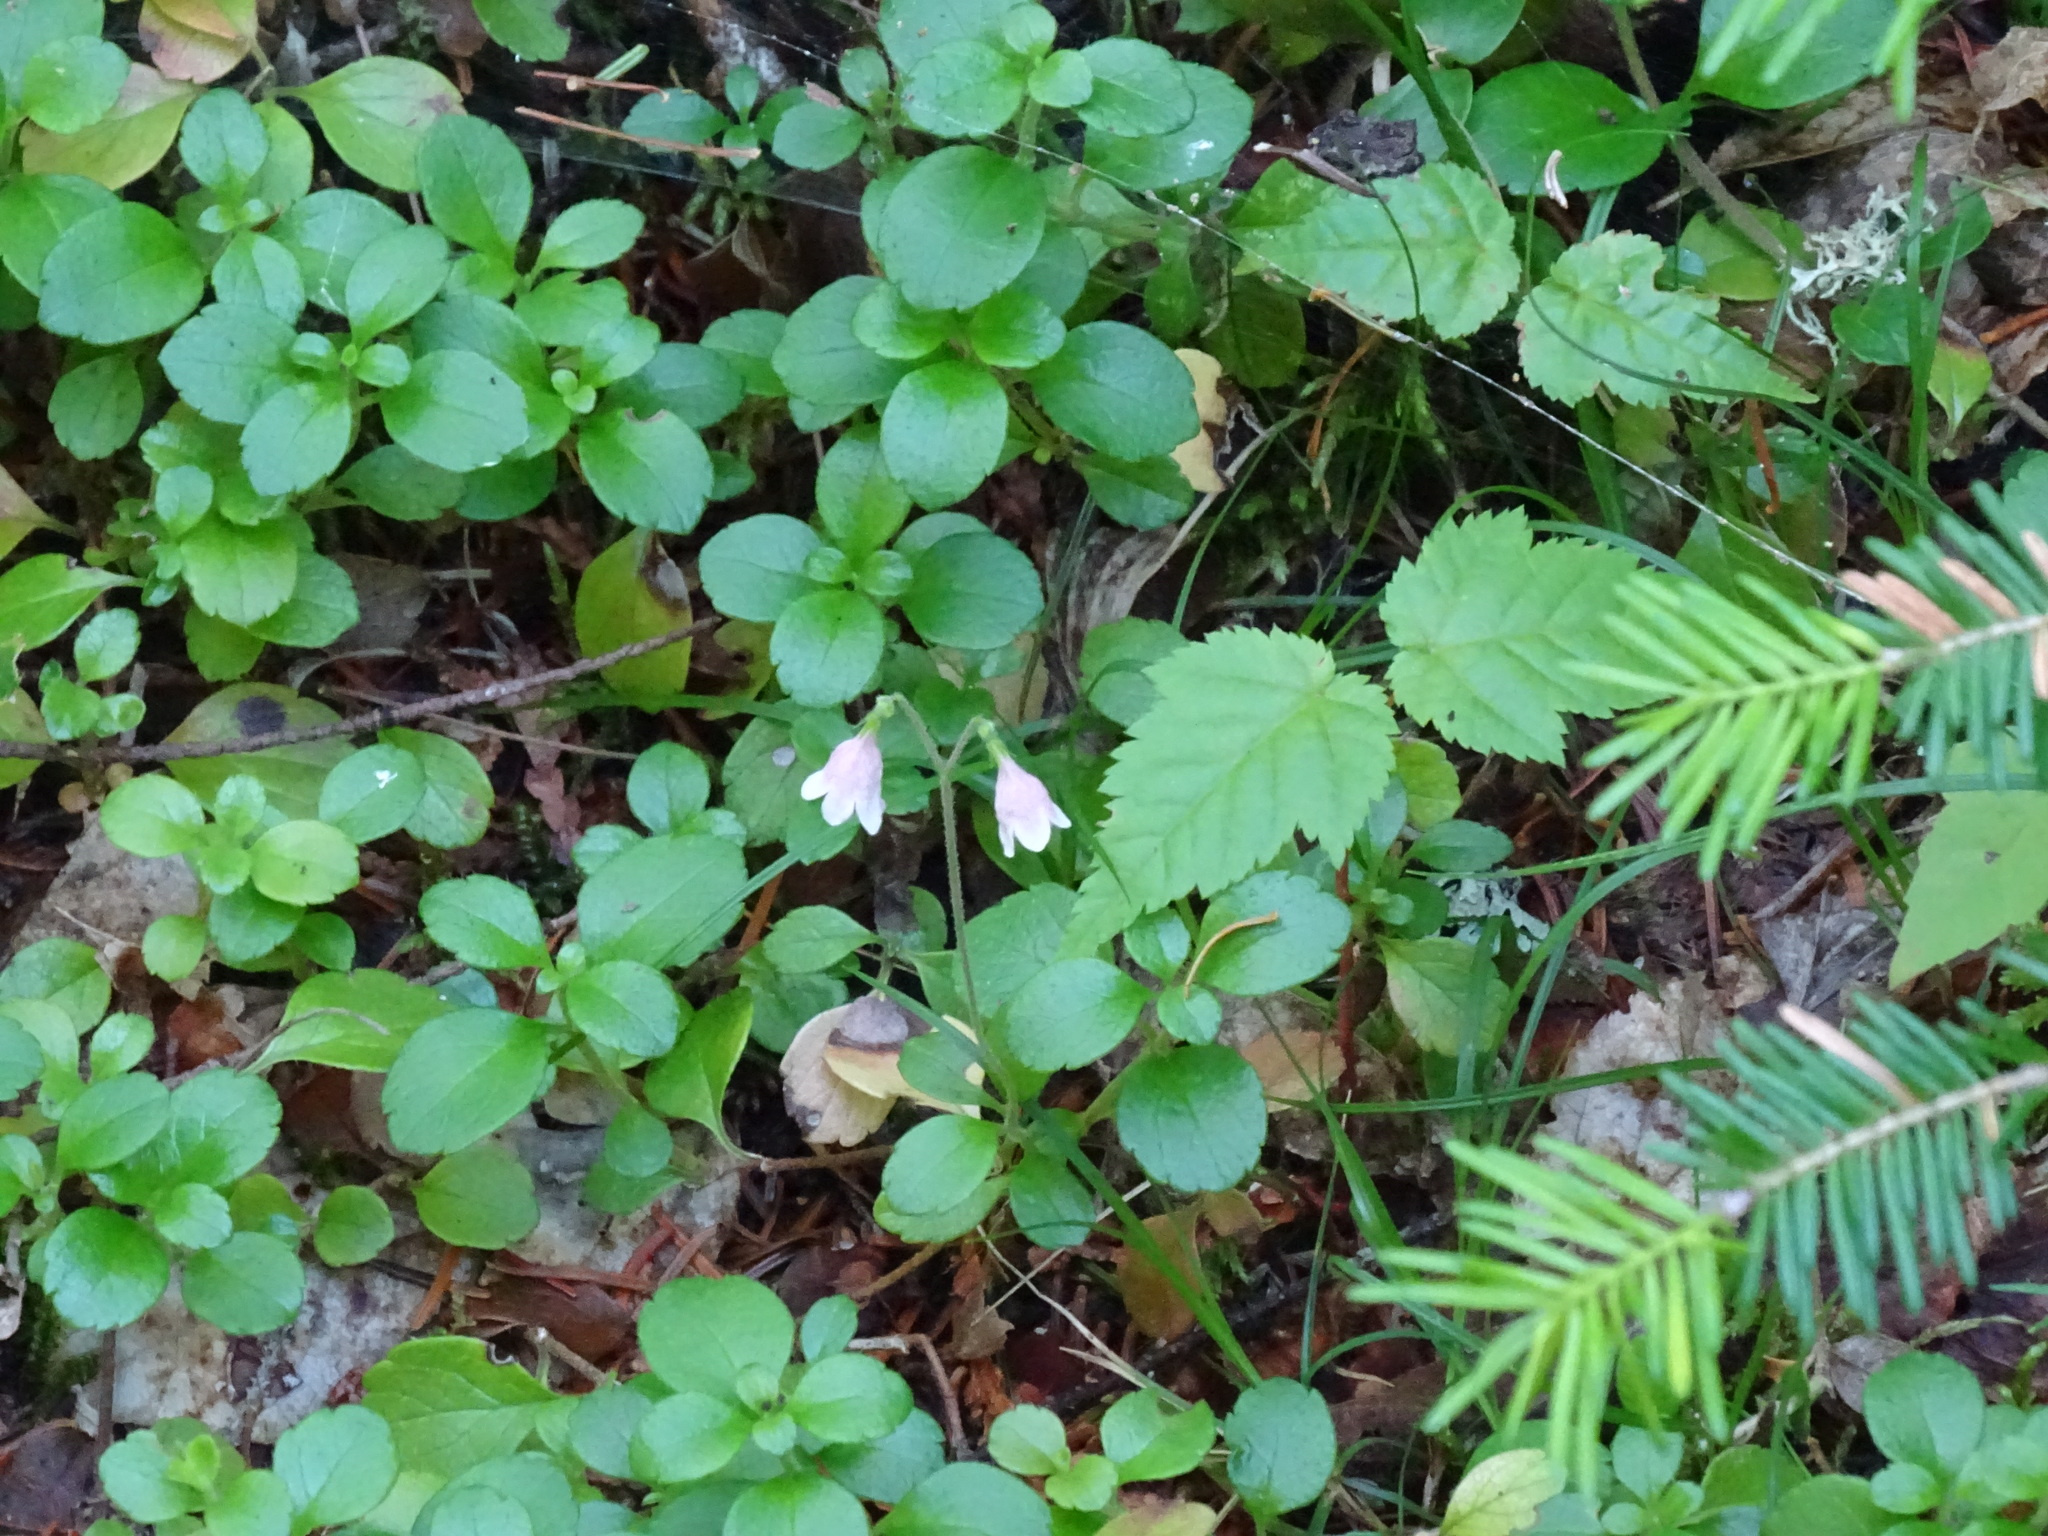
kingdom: Plantae
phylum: Tracheophyta
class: Magnoliopsida
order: Dipsacales
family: Caprifoliaceae
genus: Linnaea
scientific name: Linnaea borealis
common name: Twinflower
